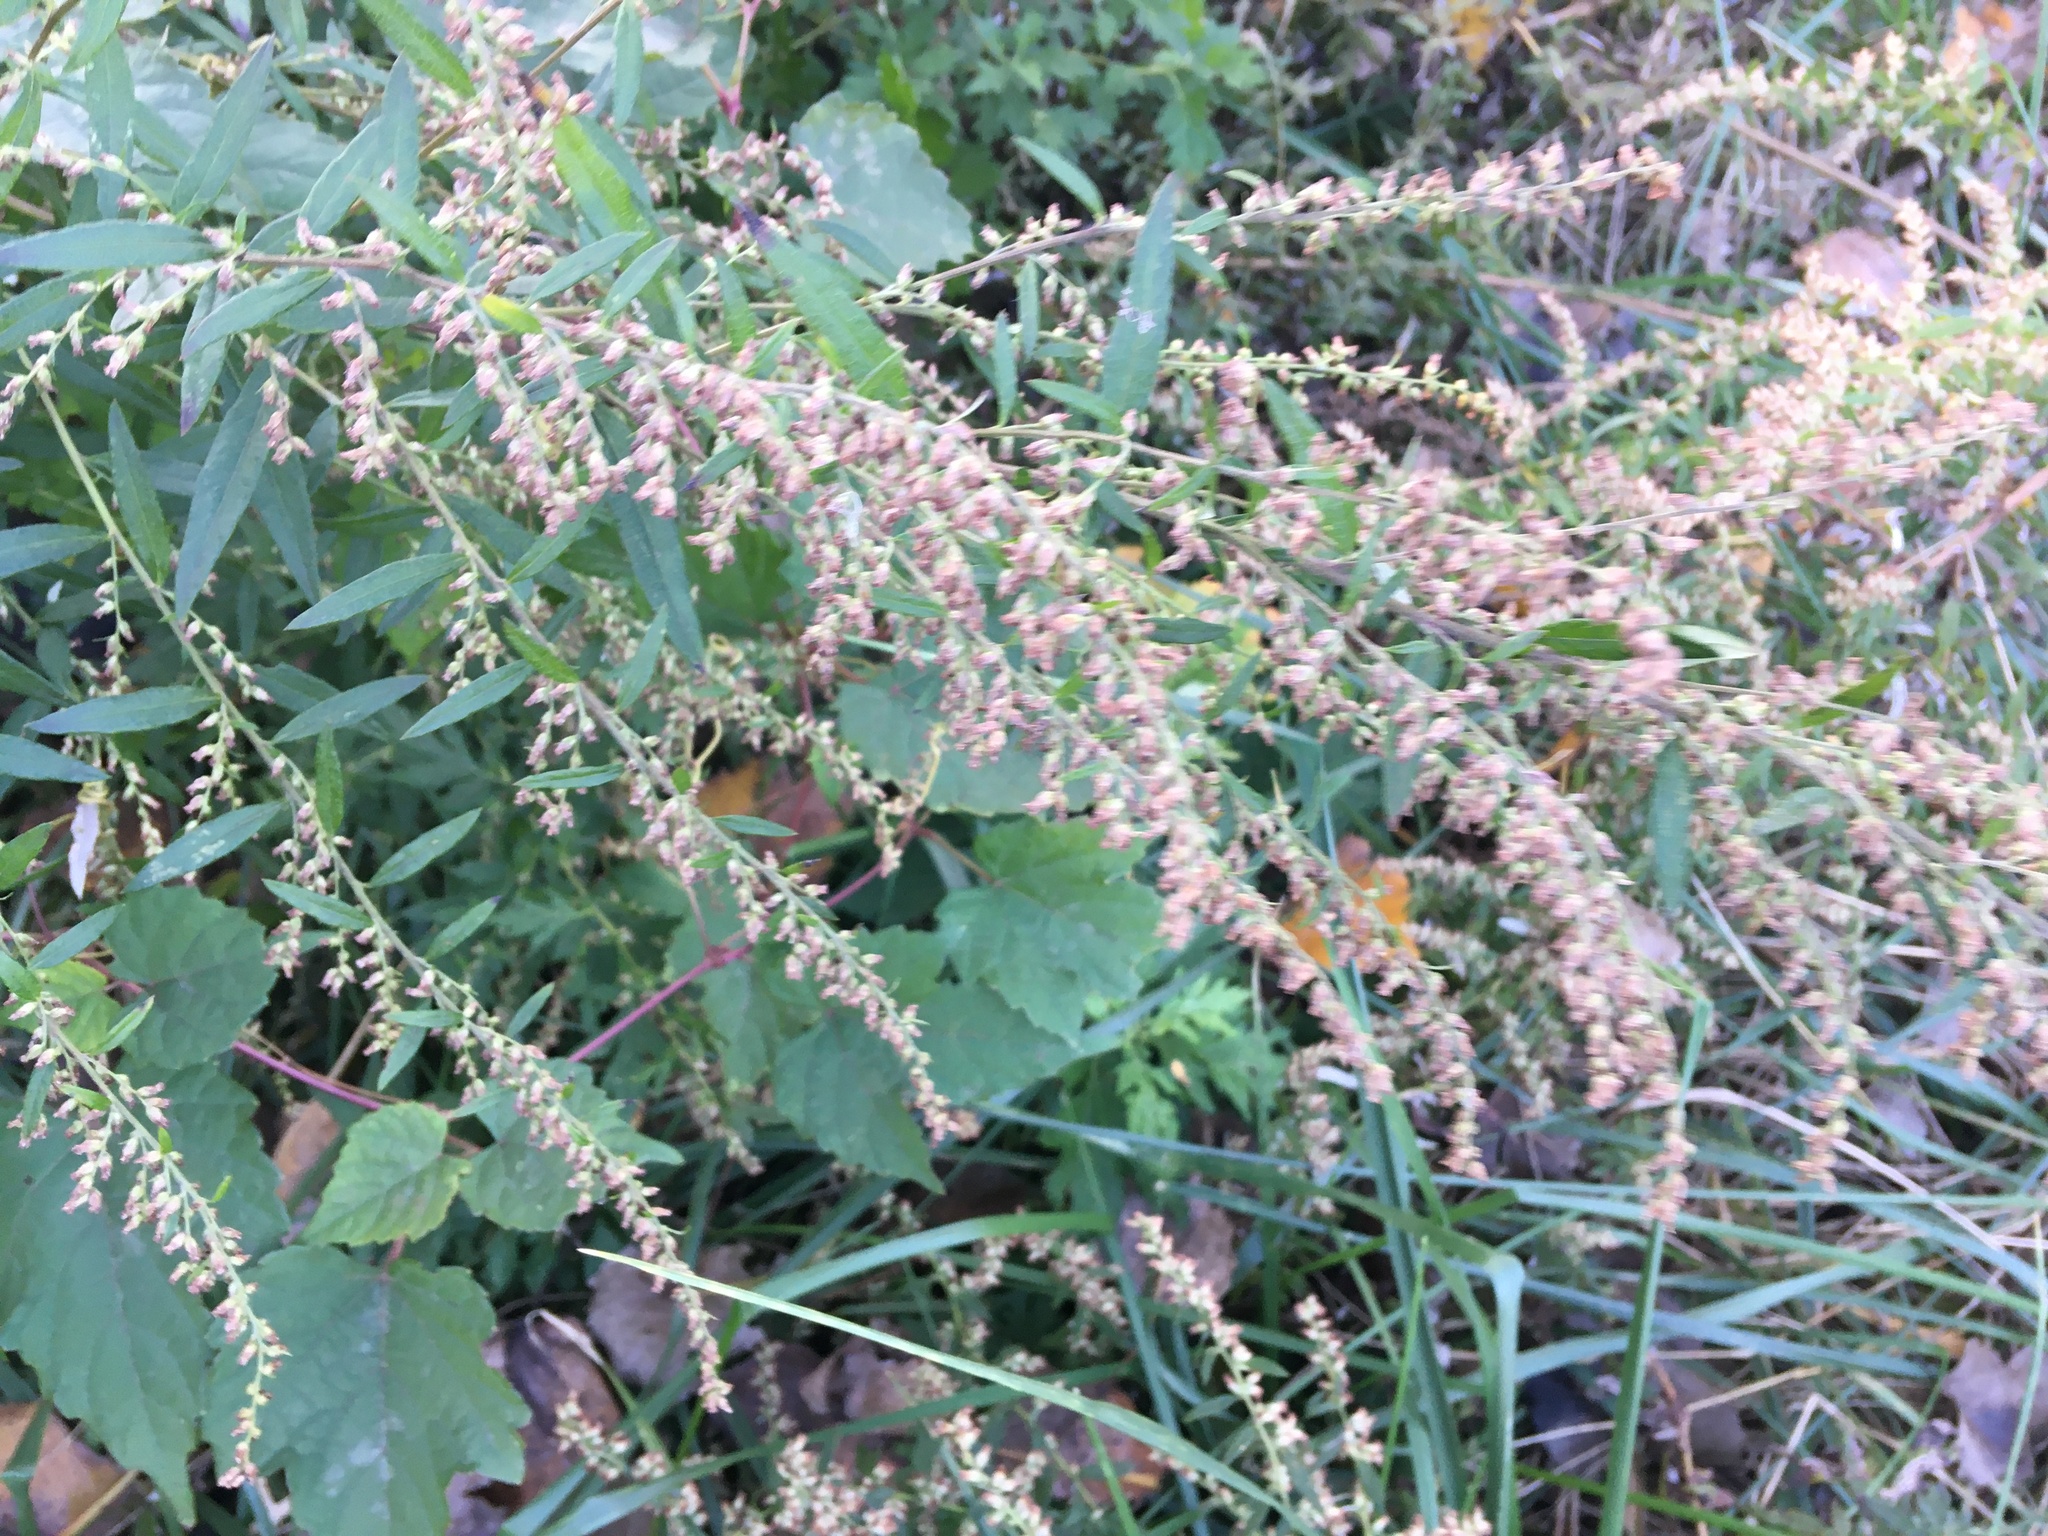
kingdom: Plantae
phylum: Tracheophyta
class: Magnoliopsida
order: Asterales
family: Asteraceae
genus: Artemisia
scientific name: Artemisia vulgaris
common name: Mugwort
